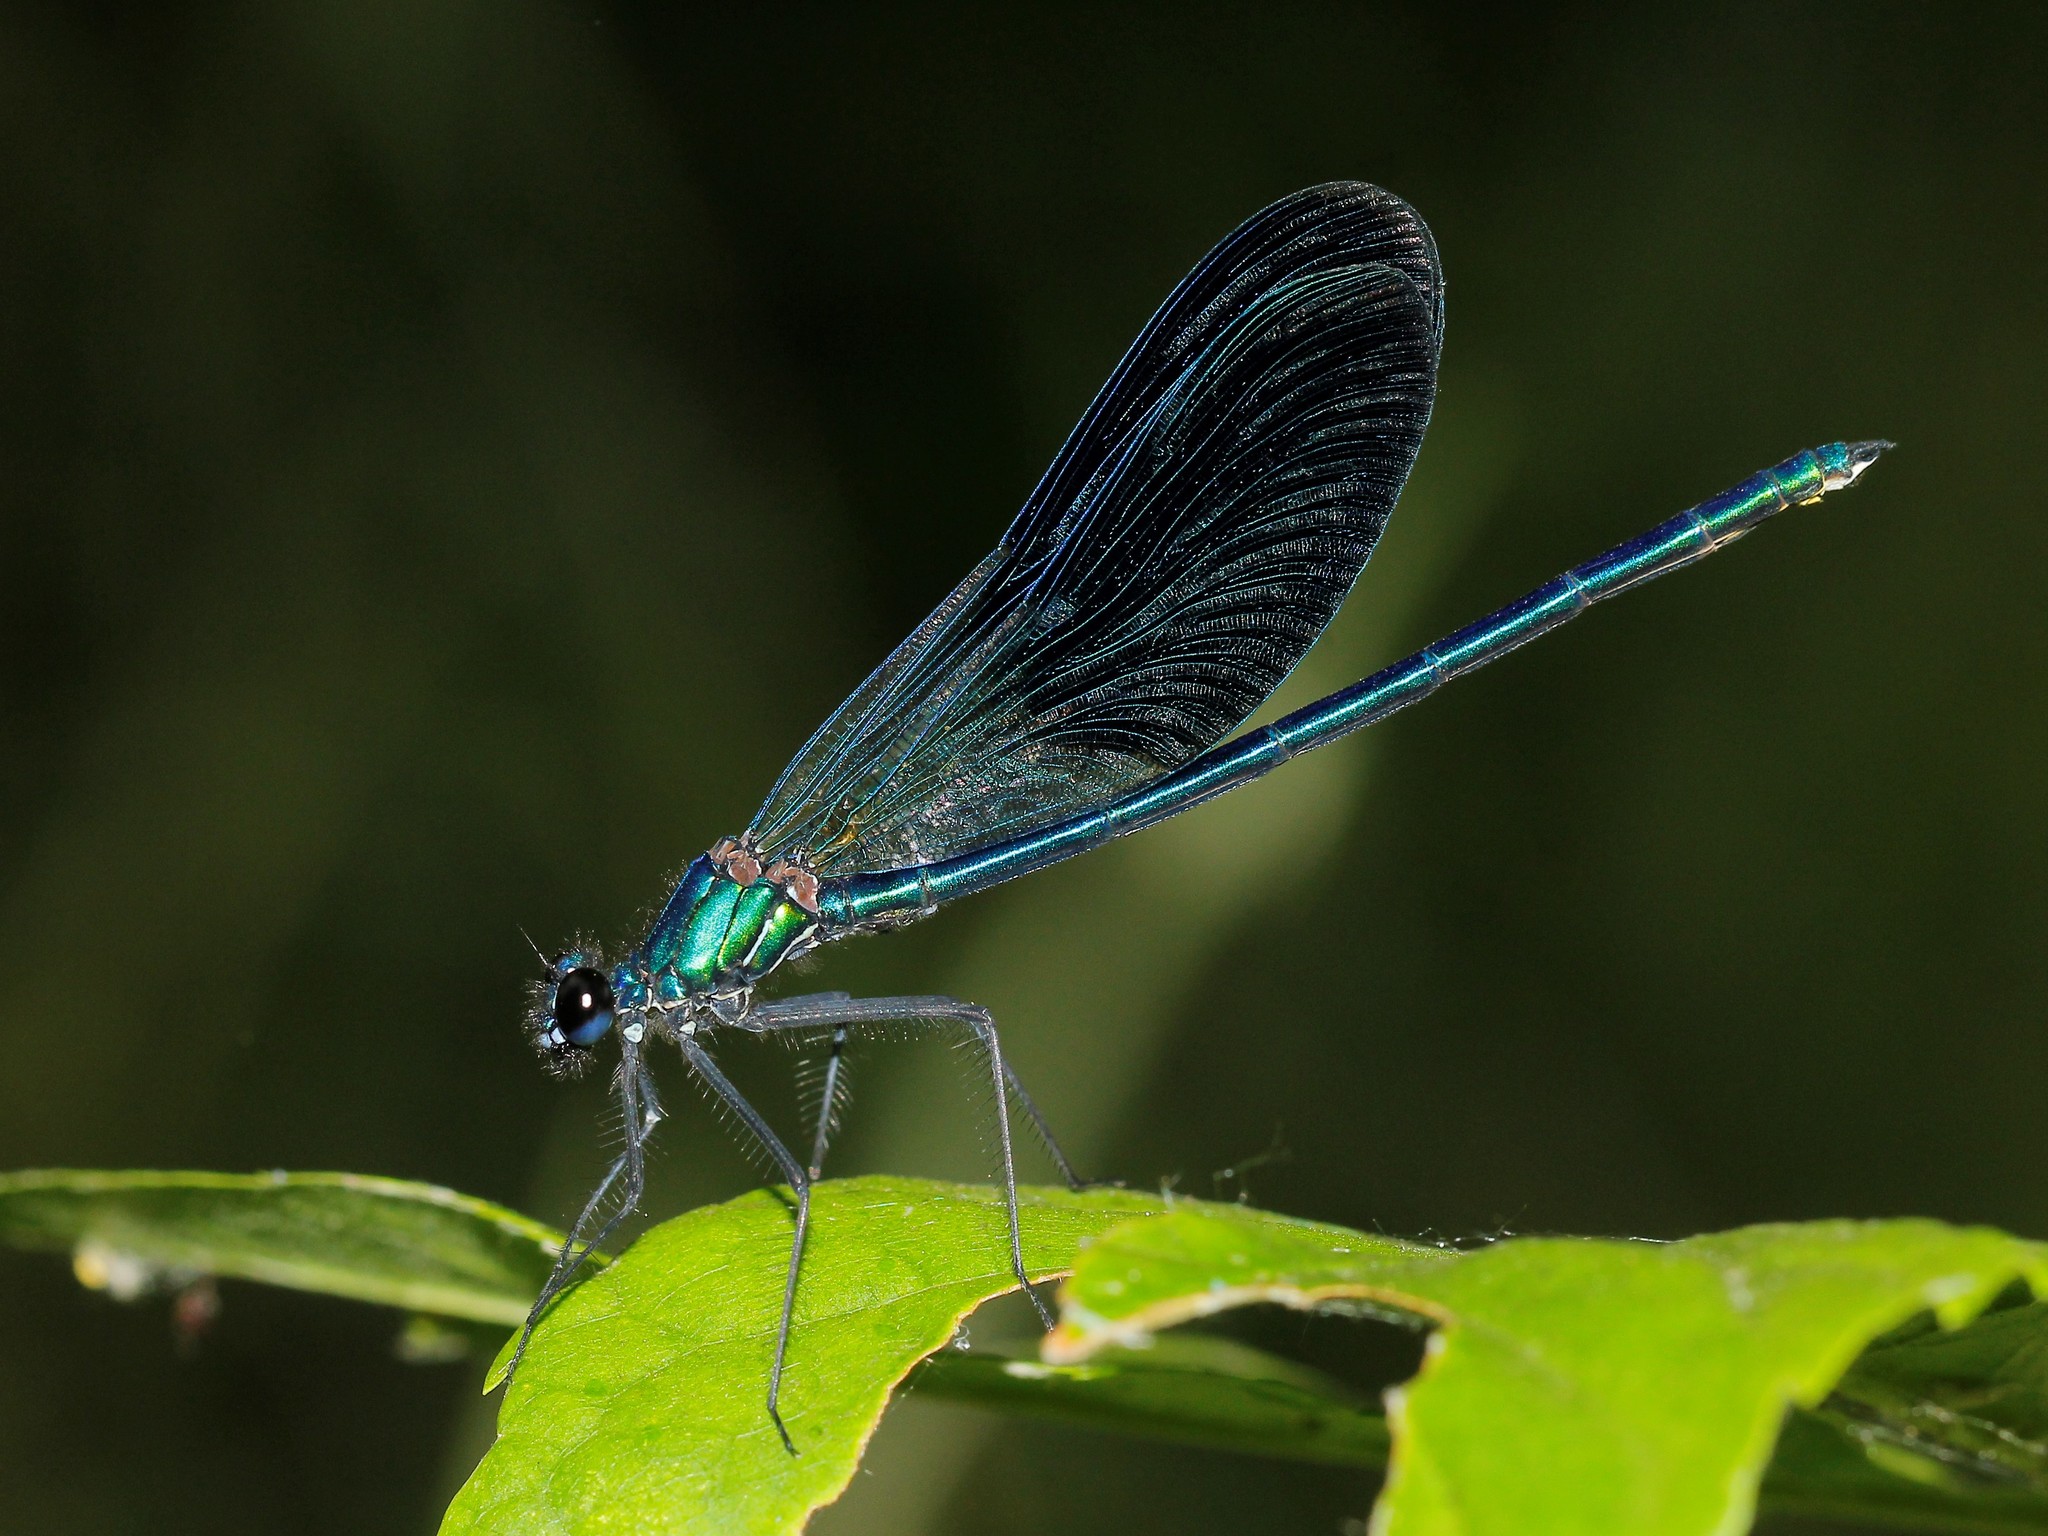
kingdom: Animalia
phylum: Arthropoda
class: Insecta
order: Odonata
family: Calopterygidae
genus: Calopteryx
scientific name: Calopteryx splendens
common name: Banded demoiselle
